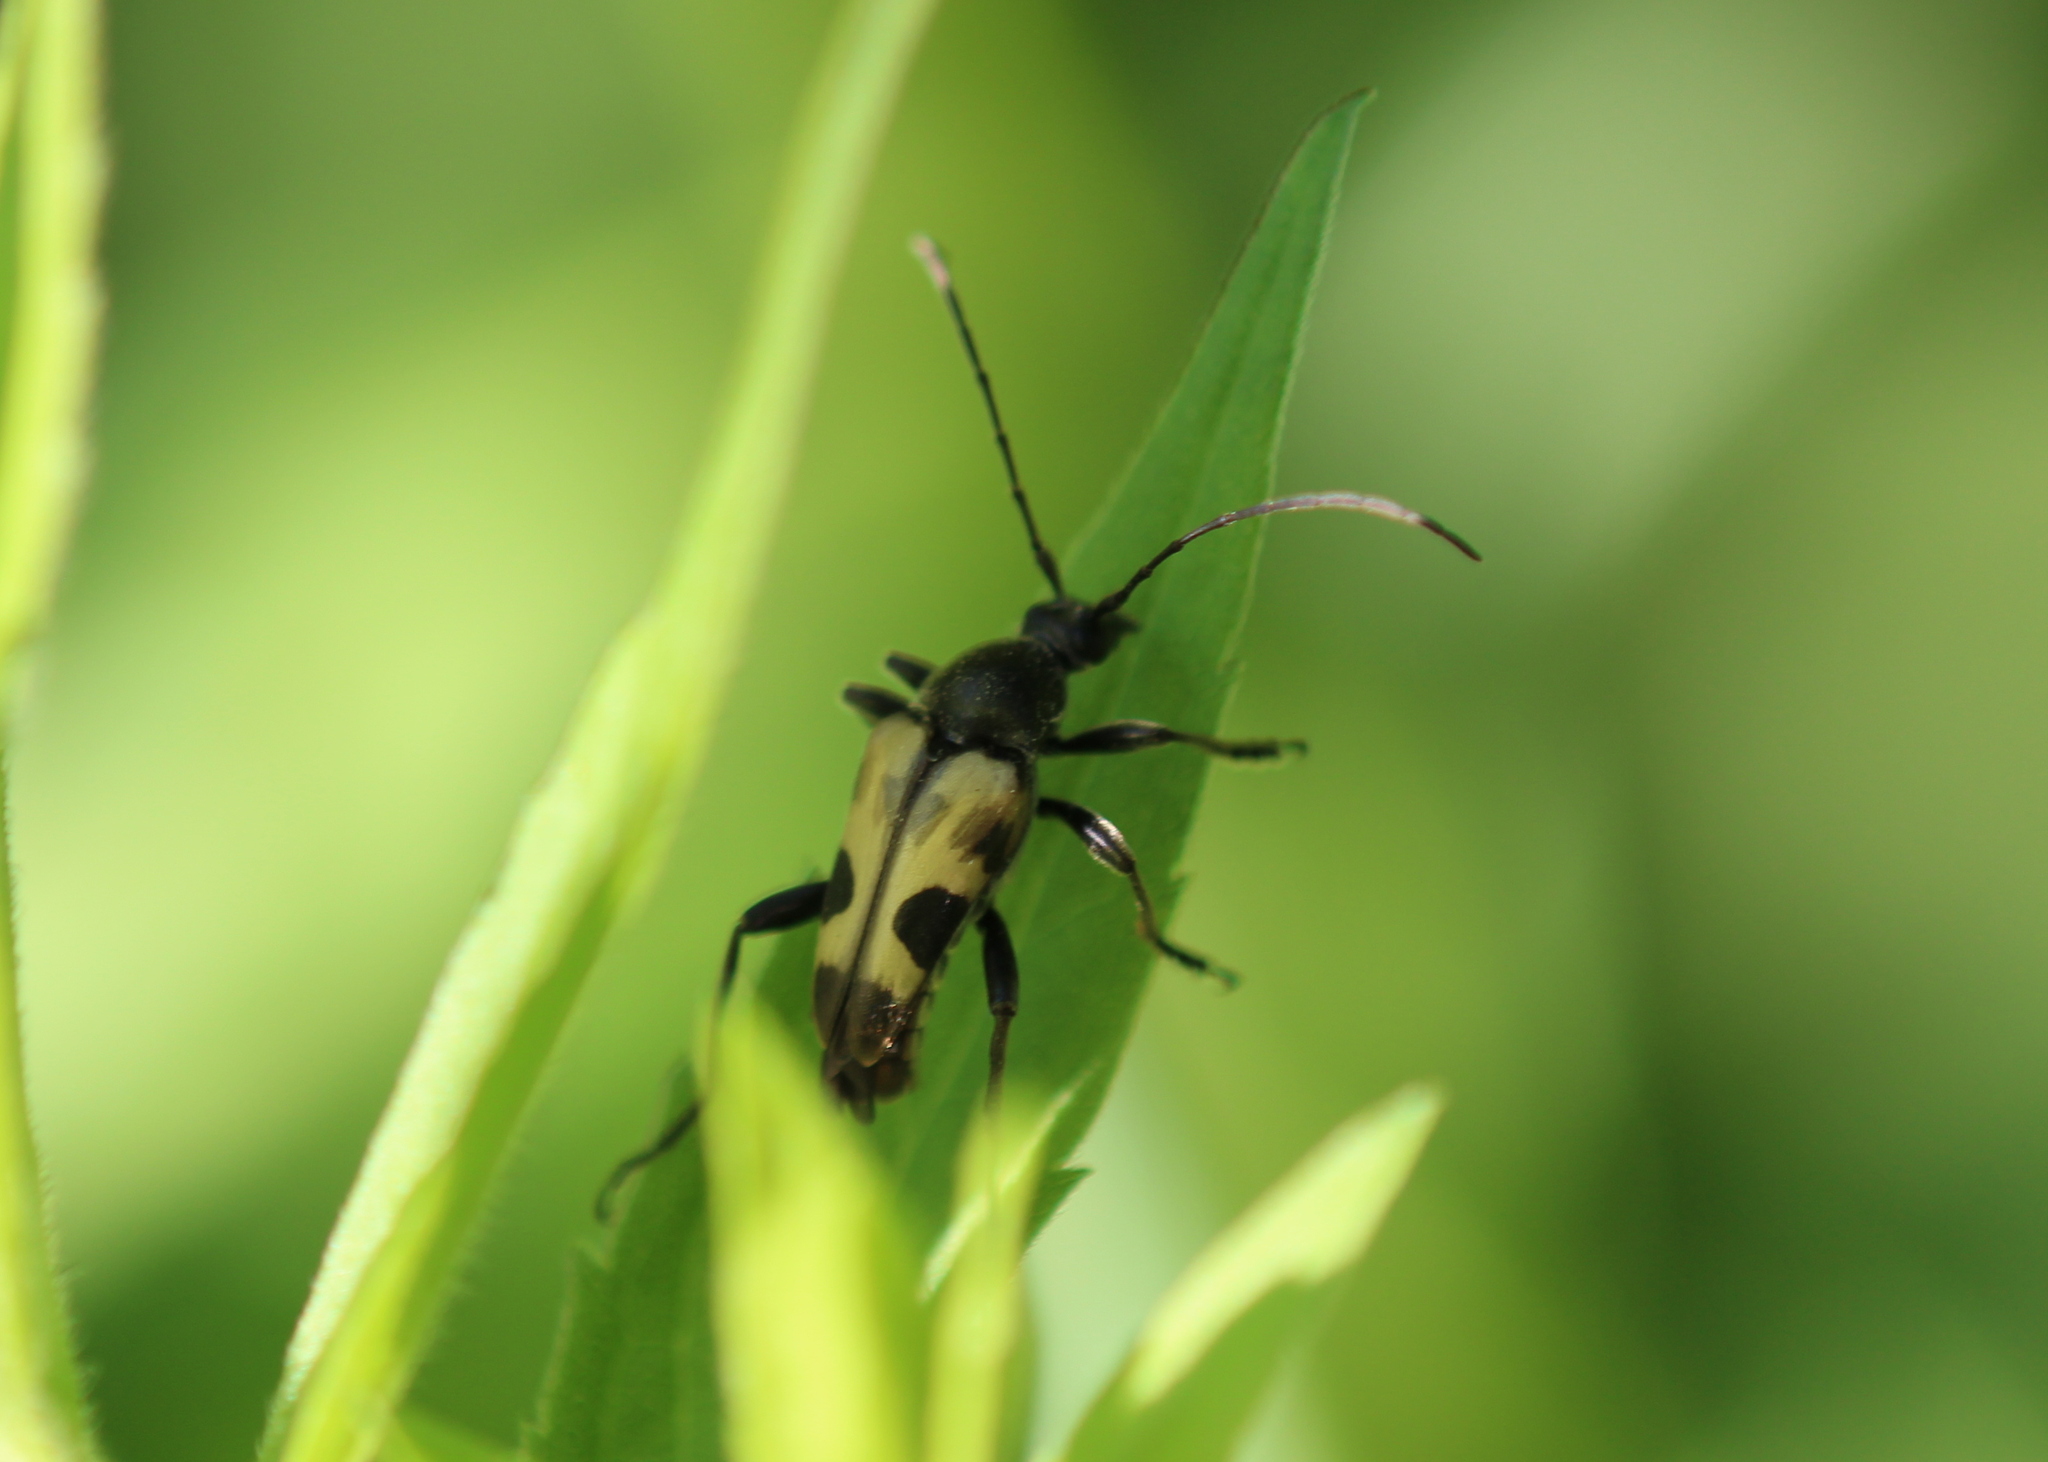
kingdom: Animalia
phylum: Arthropoda
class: Insecta
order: Coleoptera
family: Cerambycidae
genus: Judolia
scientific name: Judolia cordifera
